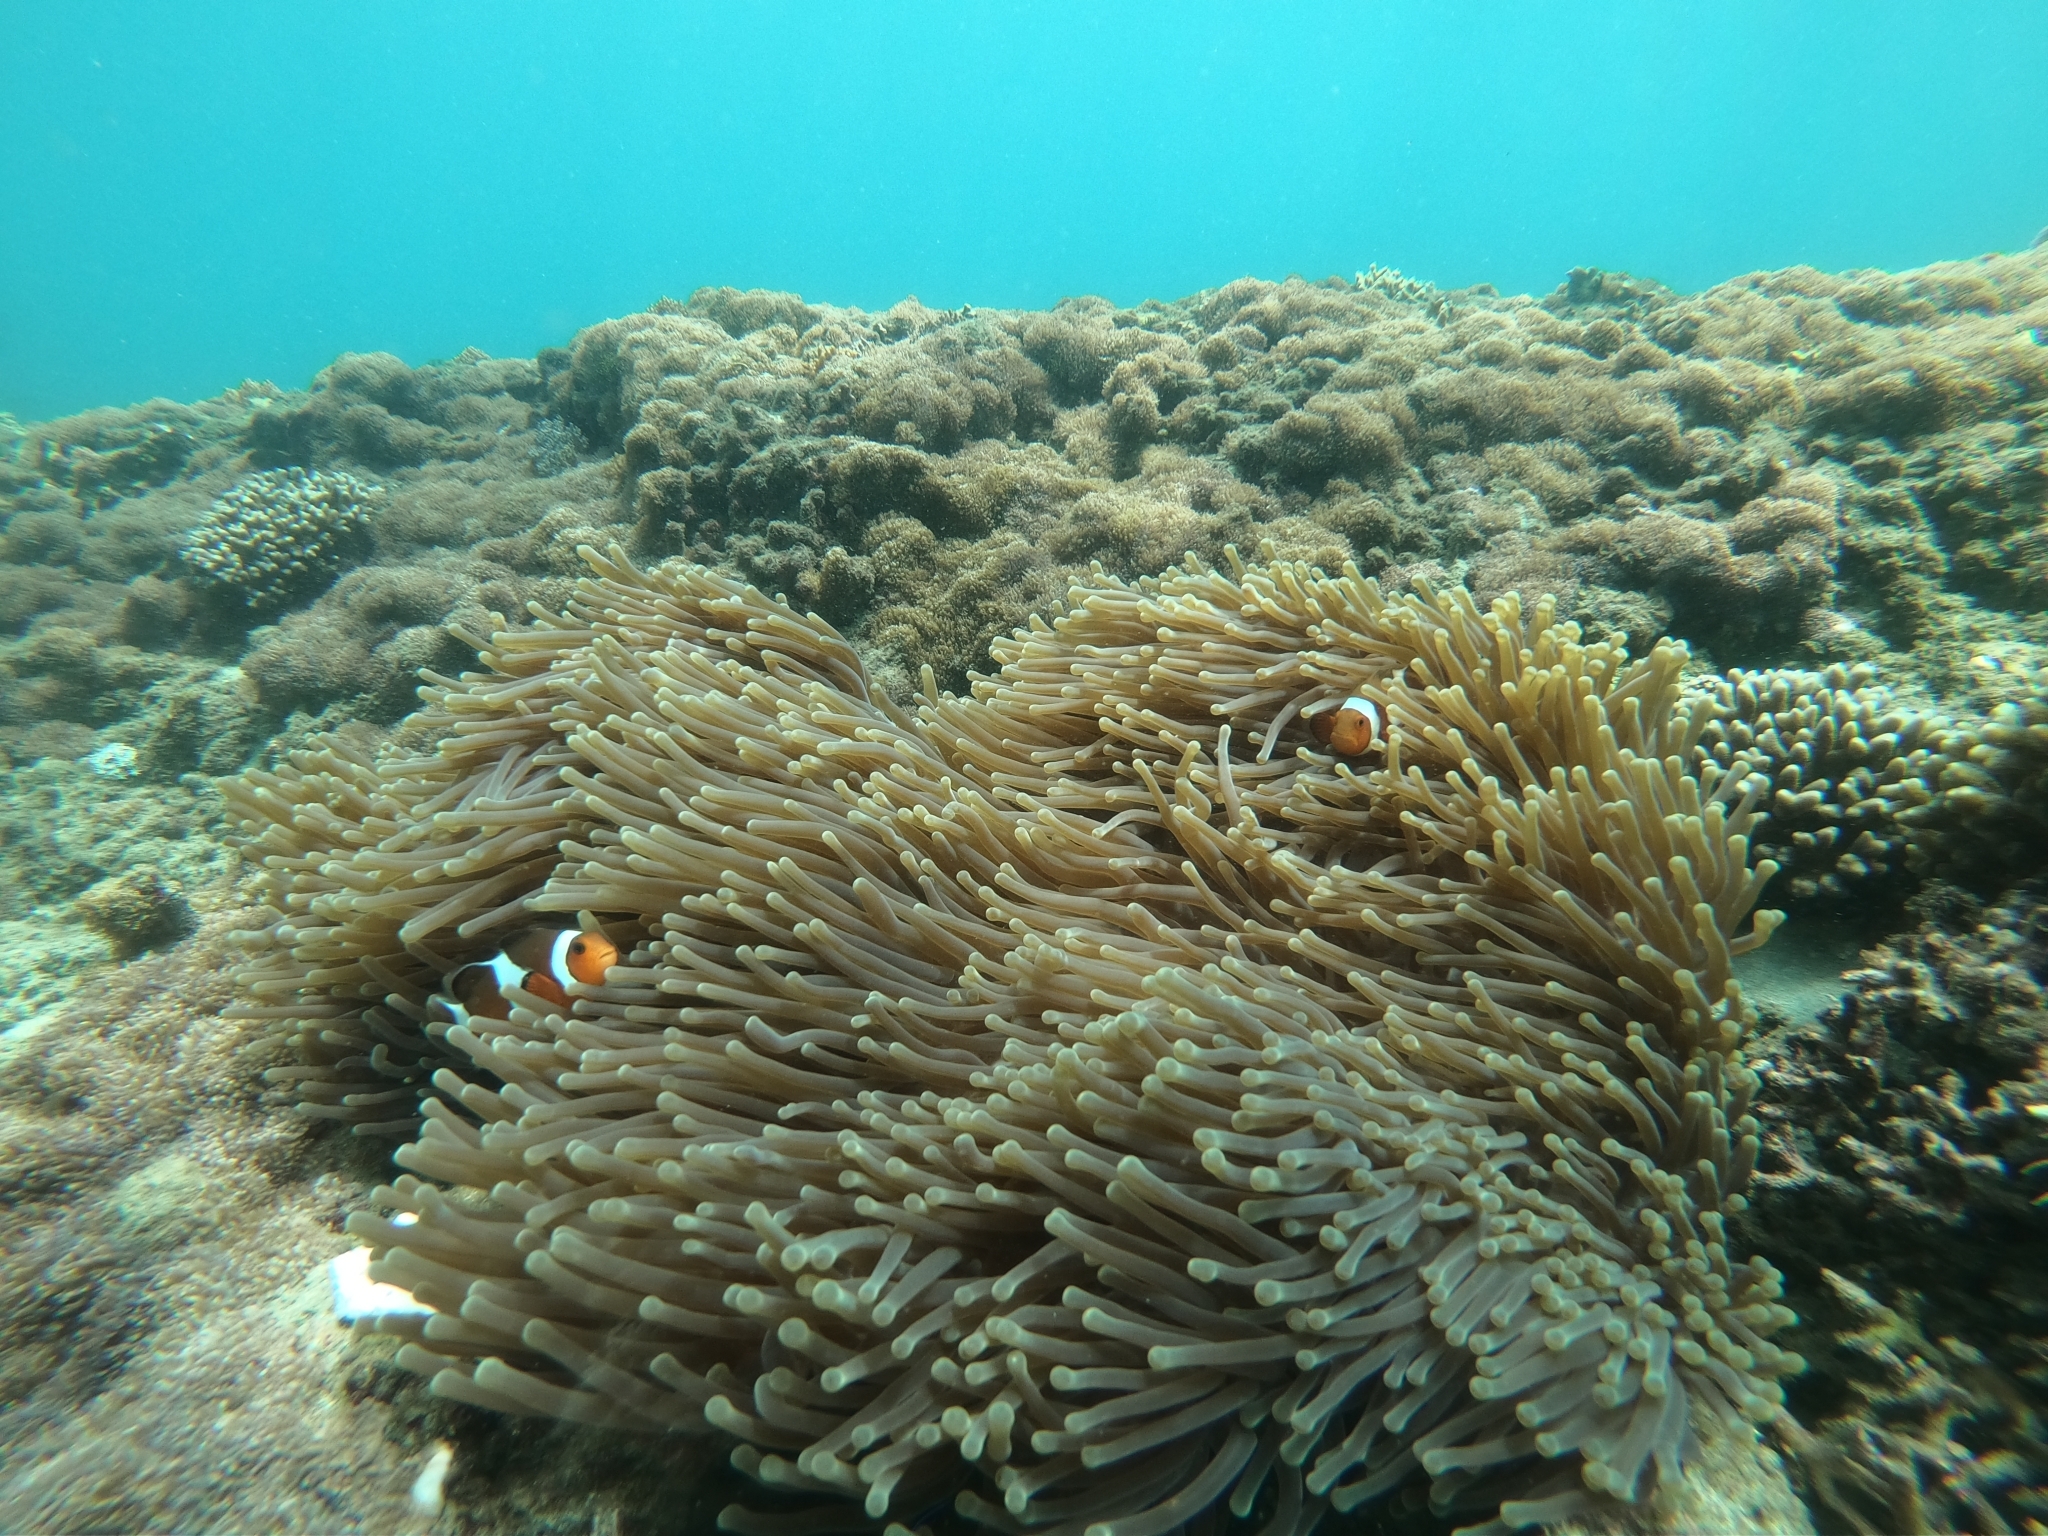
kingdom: Animalia
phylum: Chordata
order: Perciformes
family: Pomacentridae
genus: Amphiprion
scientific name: Amphiprion ocellaris
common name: Clown anemonefish
